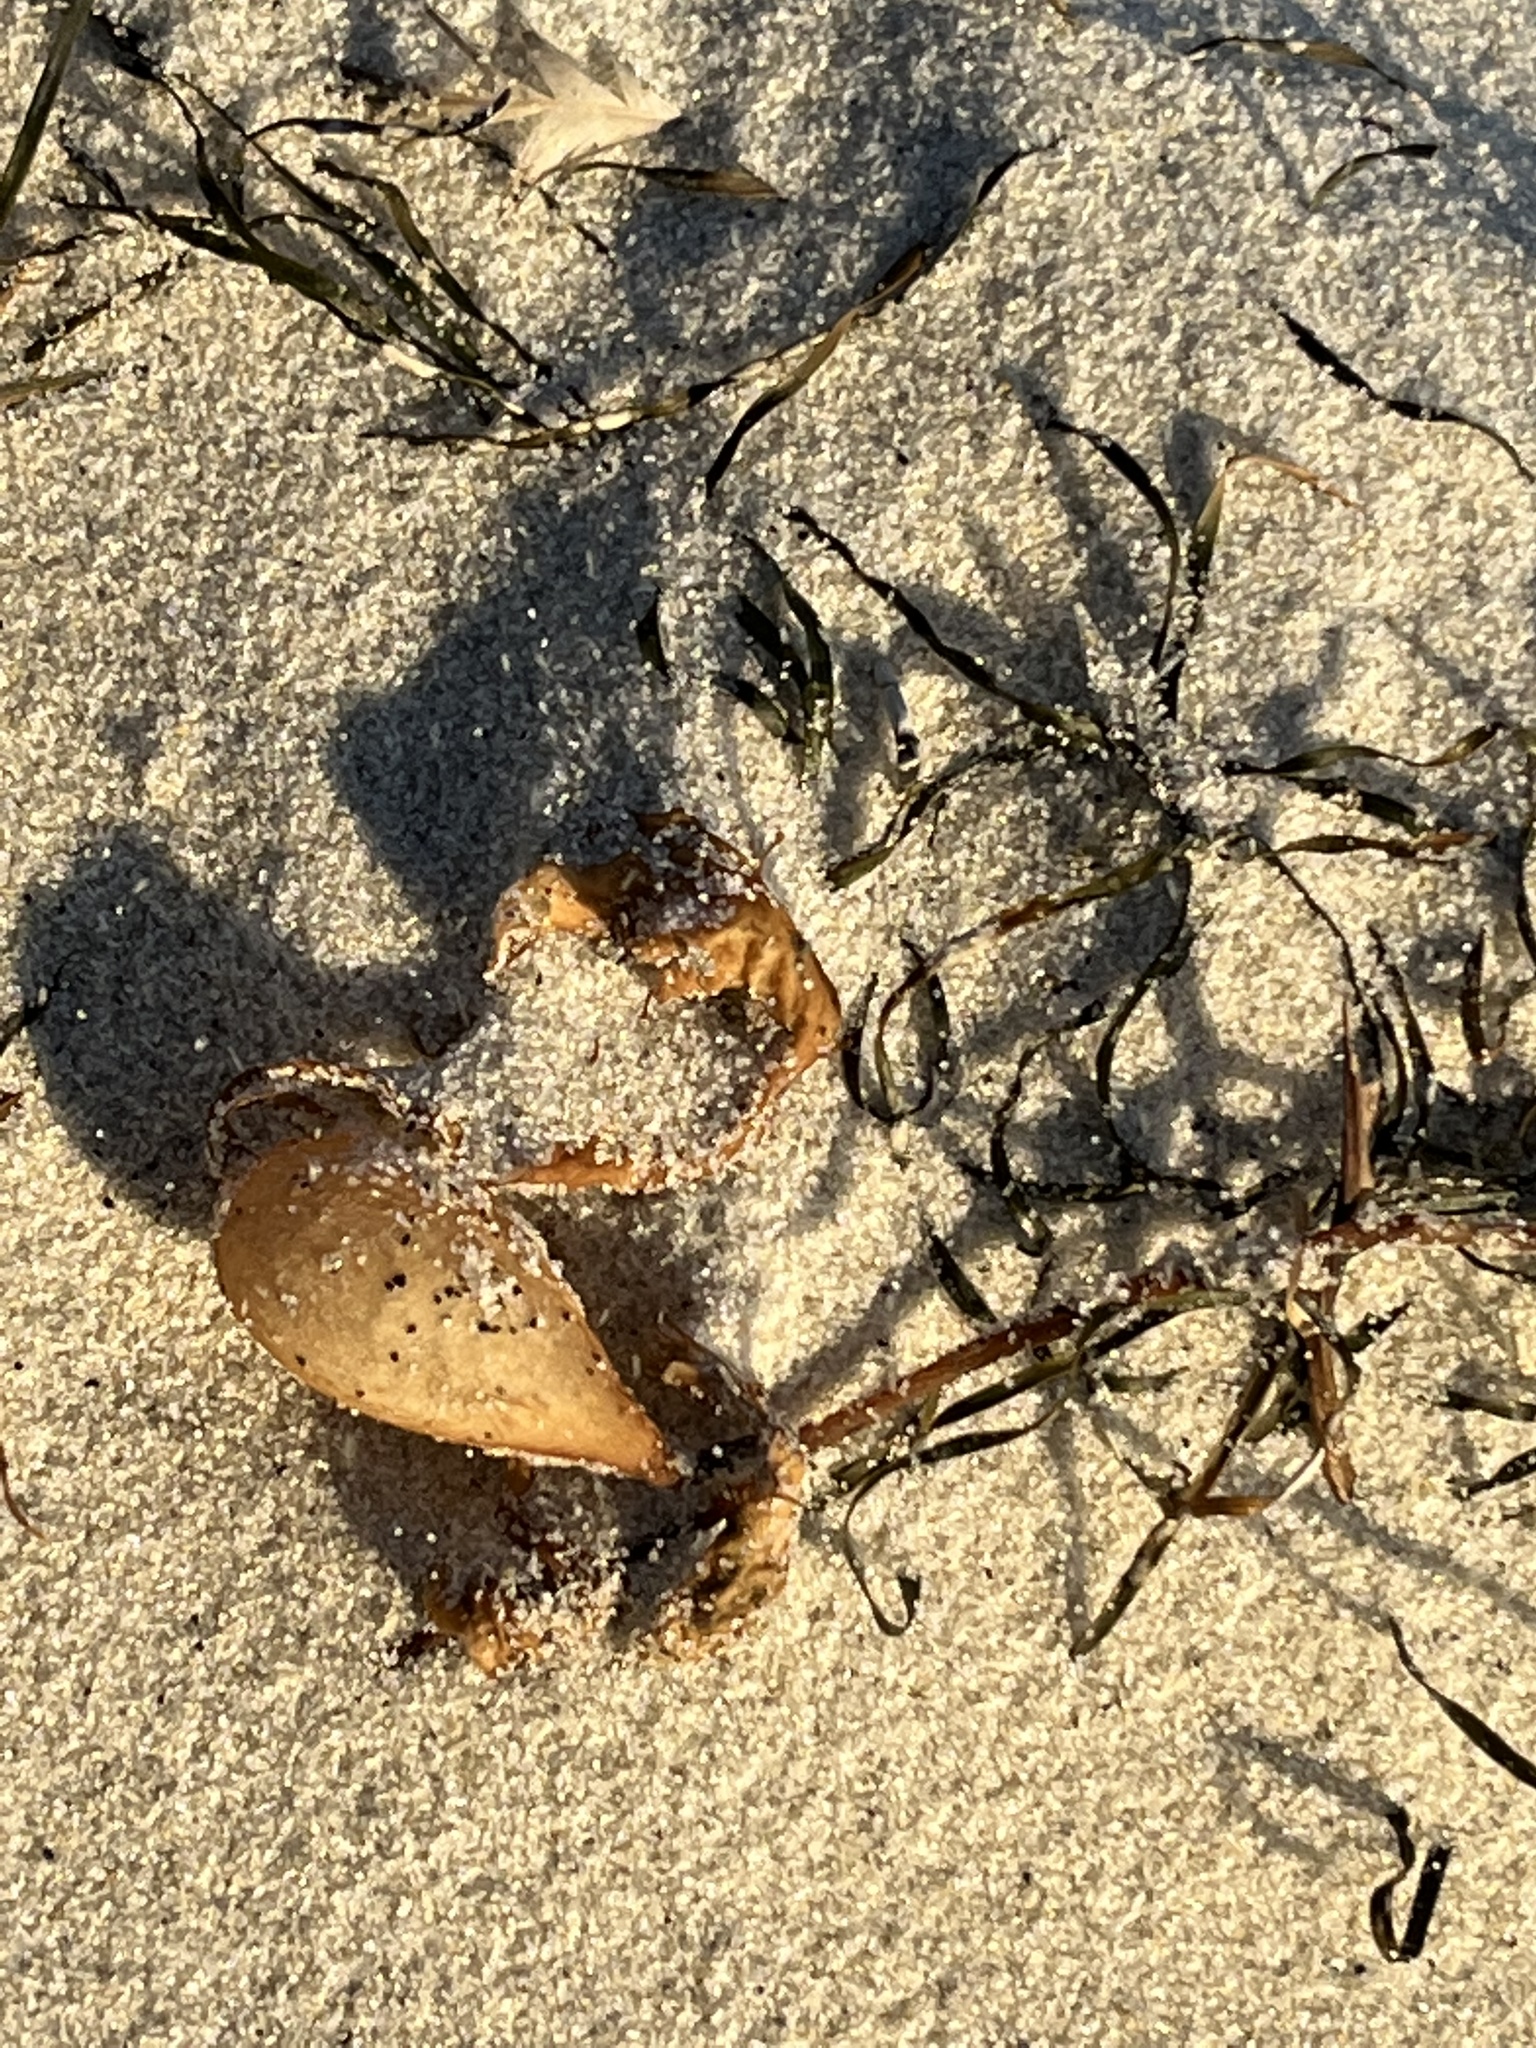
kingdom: Chromista
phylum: Ochrophyta
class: Phaeophyceae
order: Laminariales
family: Laminariaceae
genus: Macrocystis
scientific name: Macrocystis pyrifera
